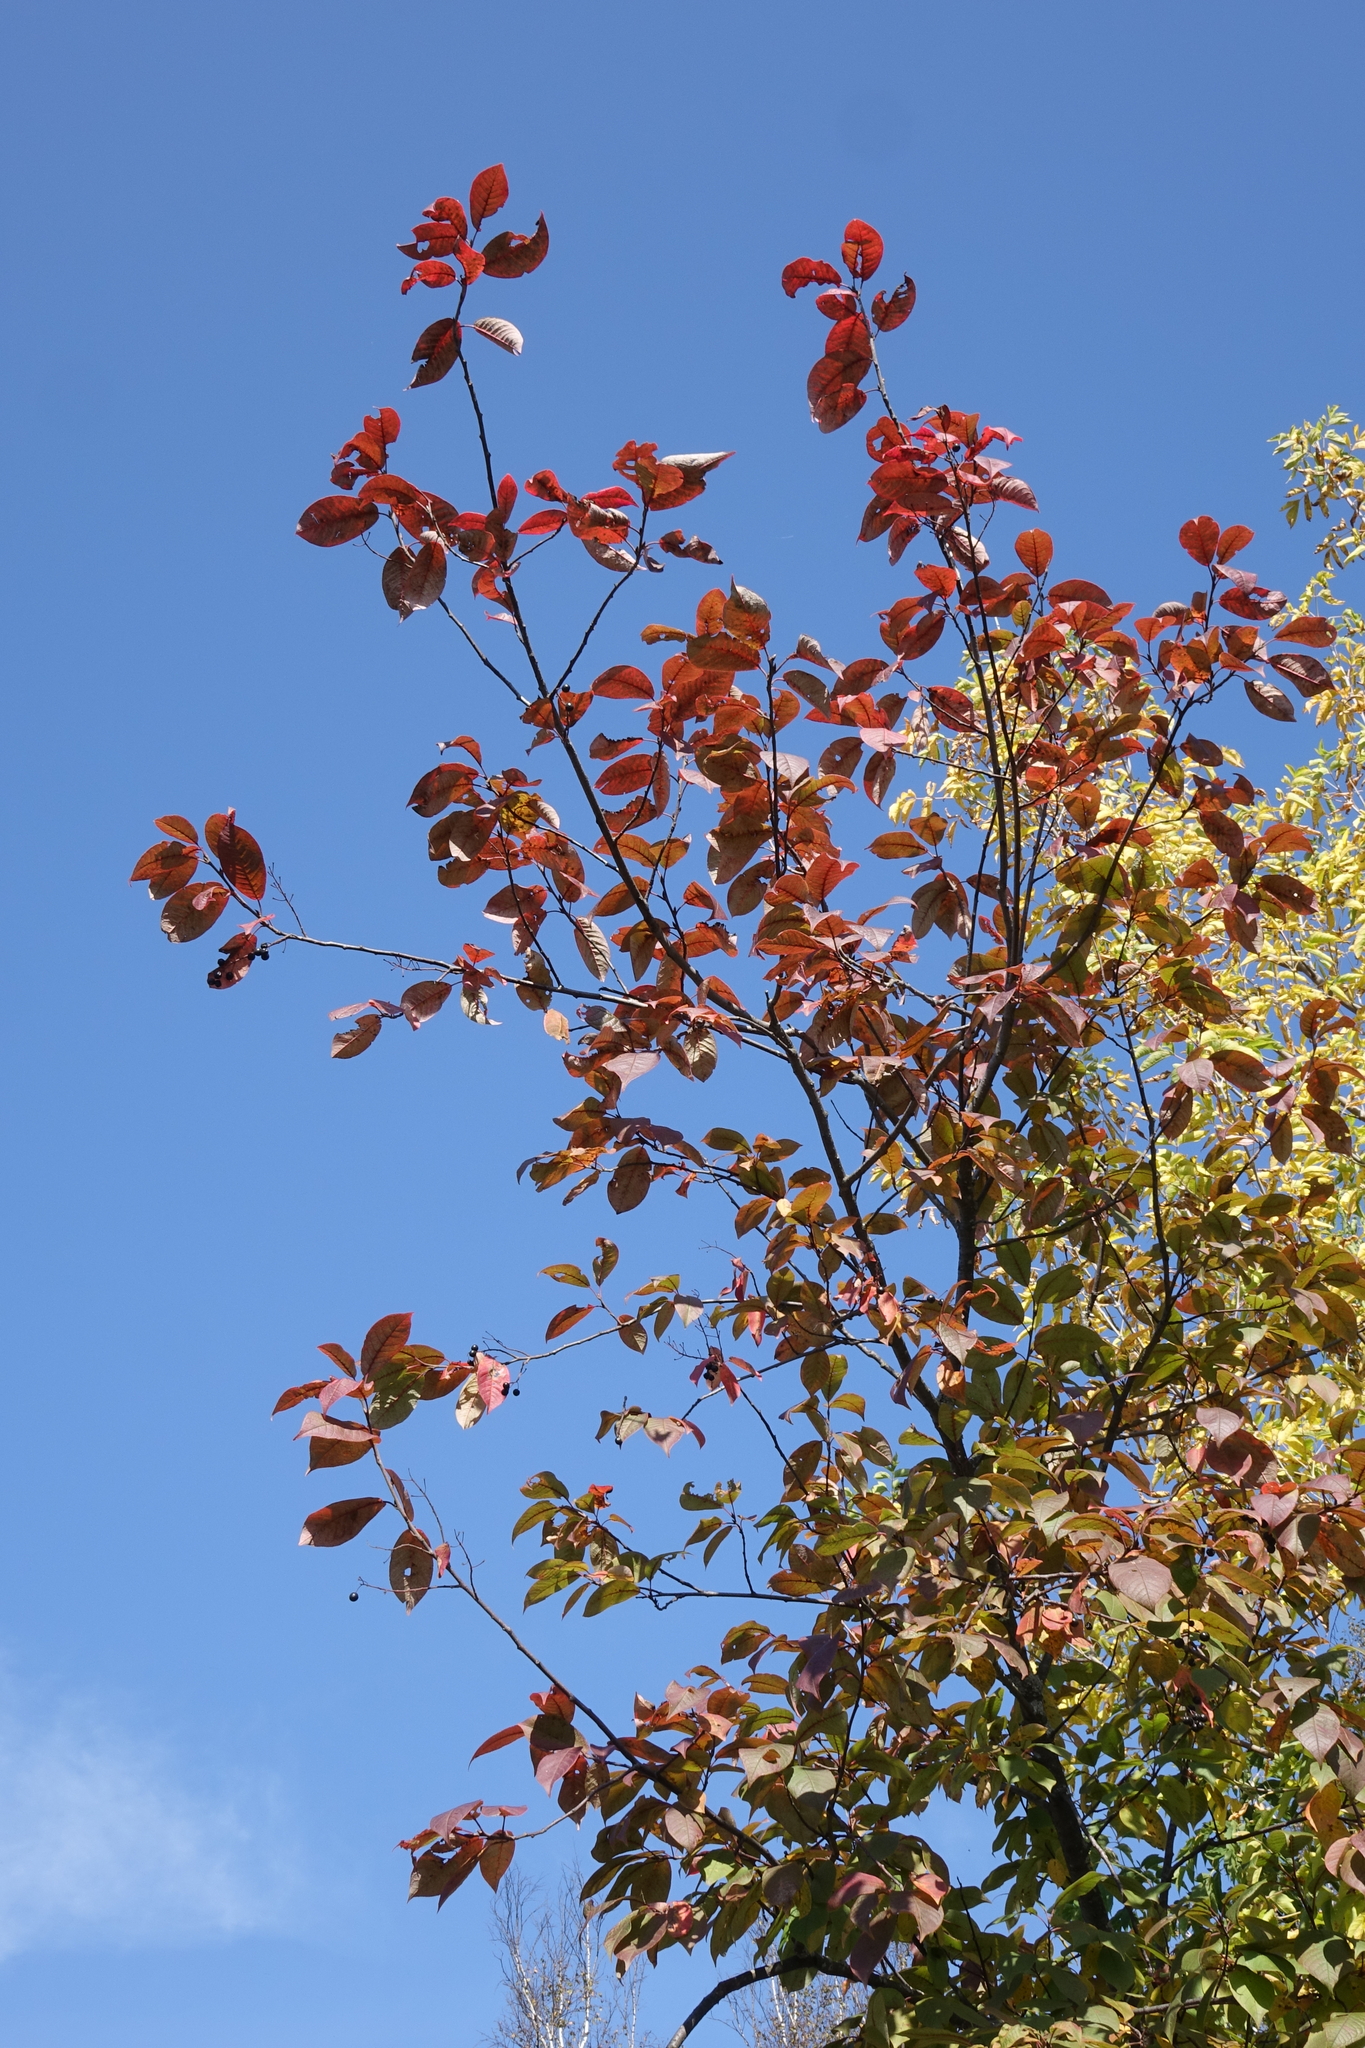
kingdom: Plantae
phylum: Tracheophyta
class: Magnoliopsida
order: Rosales
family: Rosaceae
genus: Prunus
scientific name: Prunus padus
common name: Bird cherry
